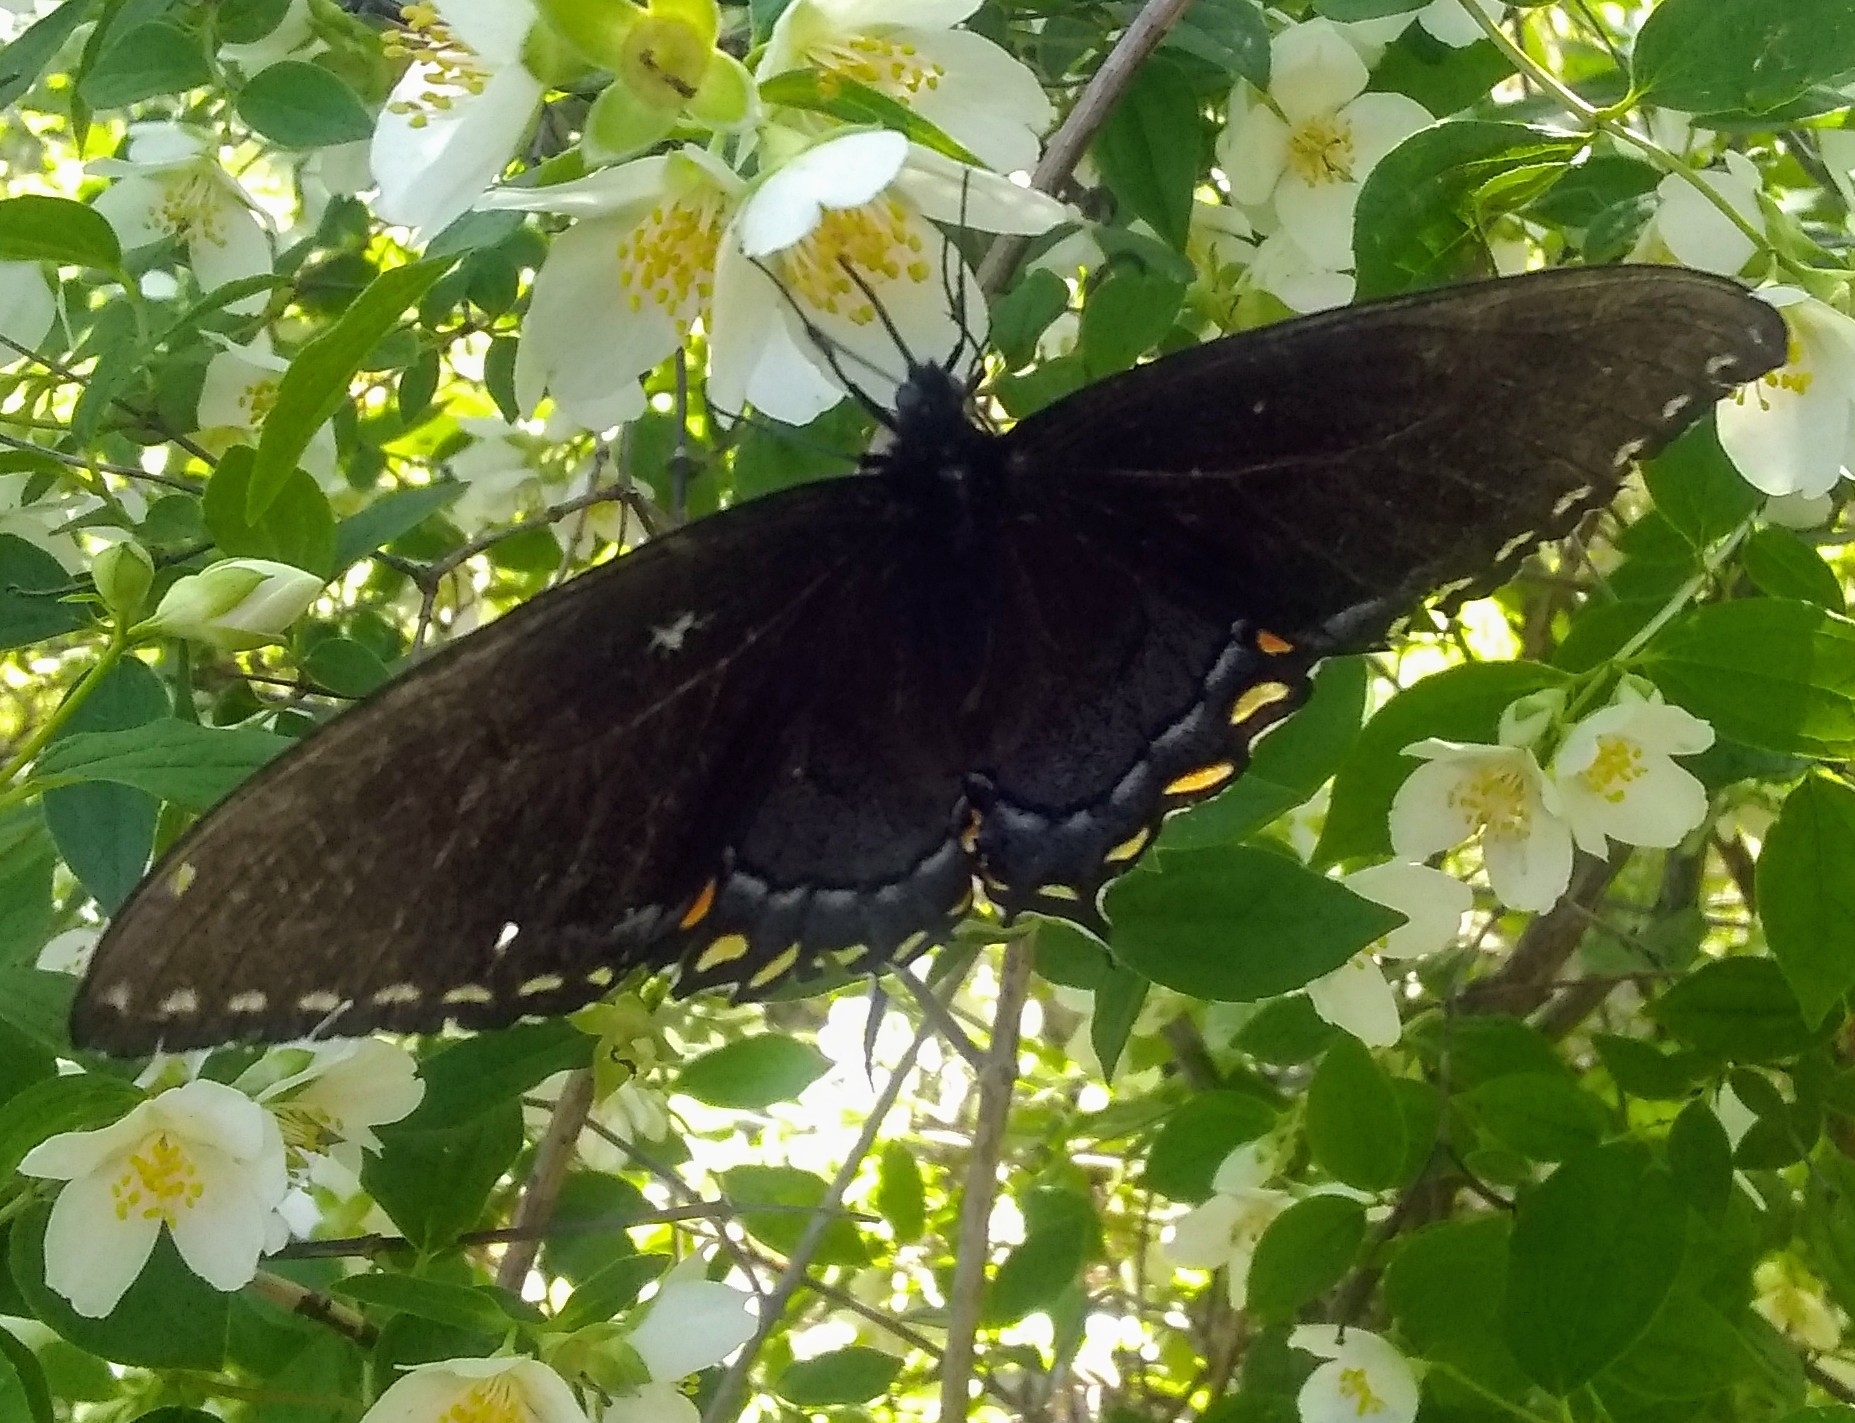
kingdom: Animalia
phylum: Arthropoda
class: Insecta
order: Lepidoptera
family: Papilionidae
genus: Papilio
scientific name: Papilio glaucus
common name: Tiger swallowtail
